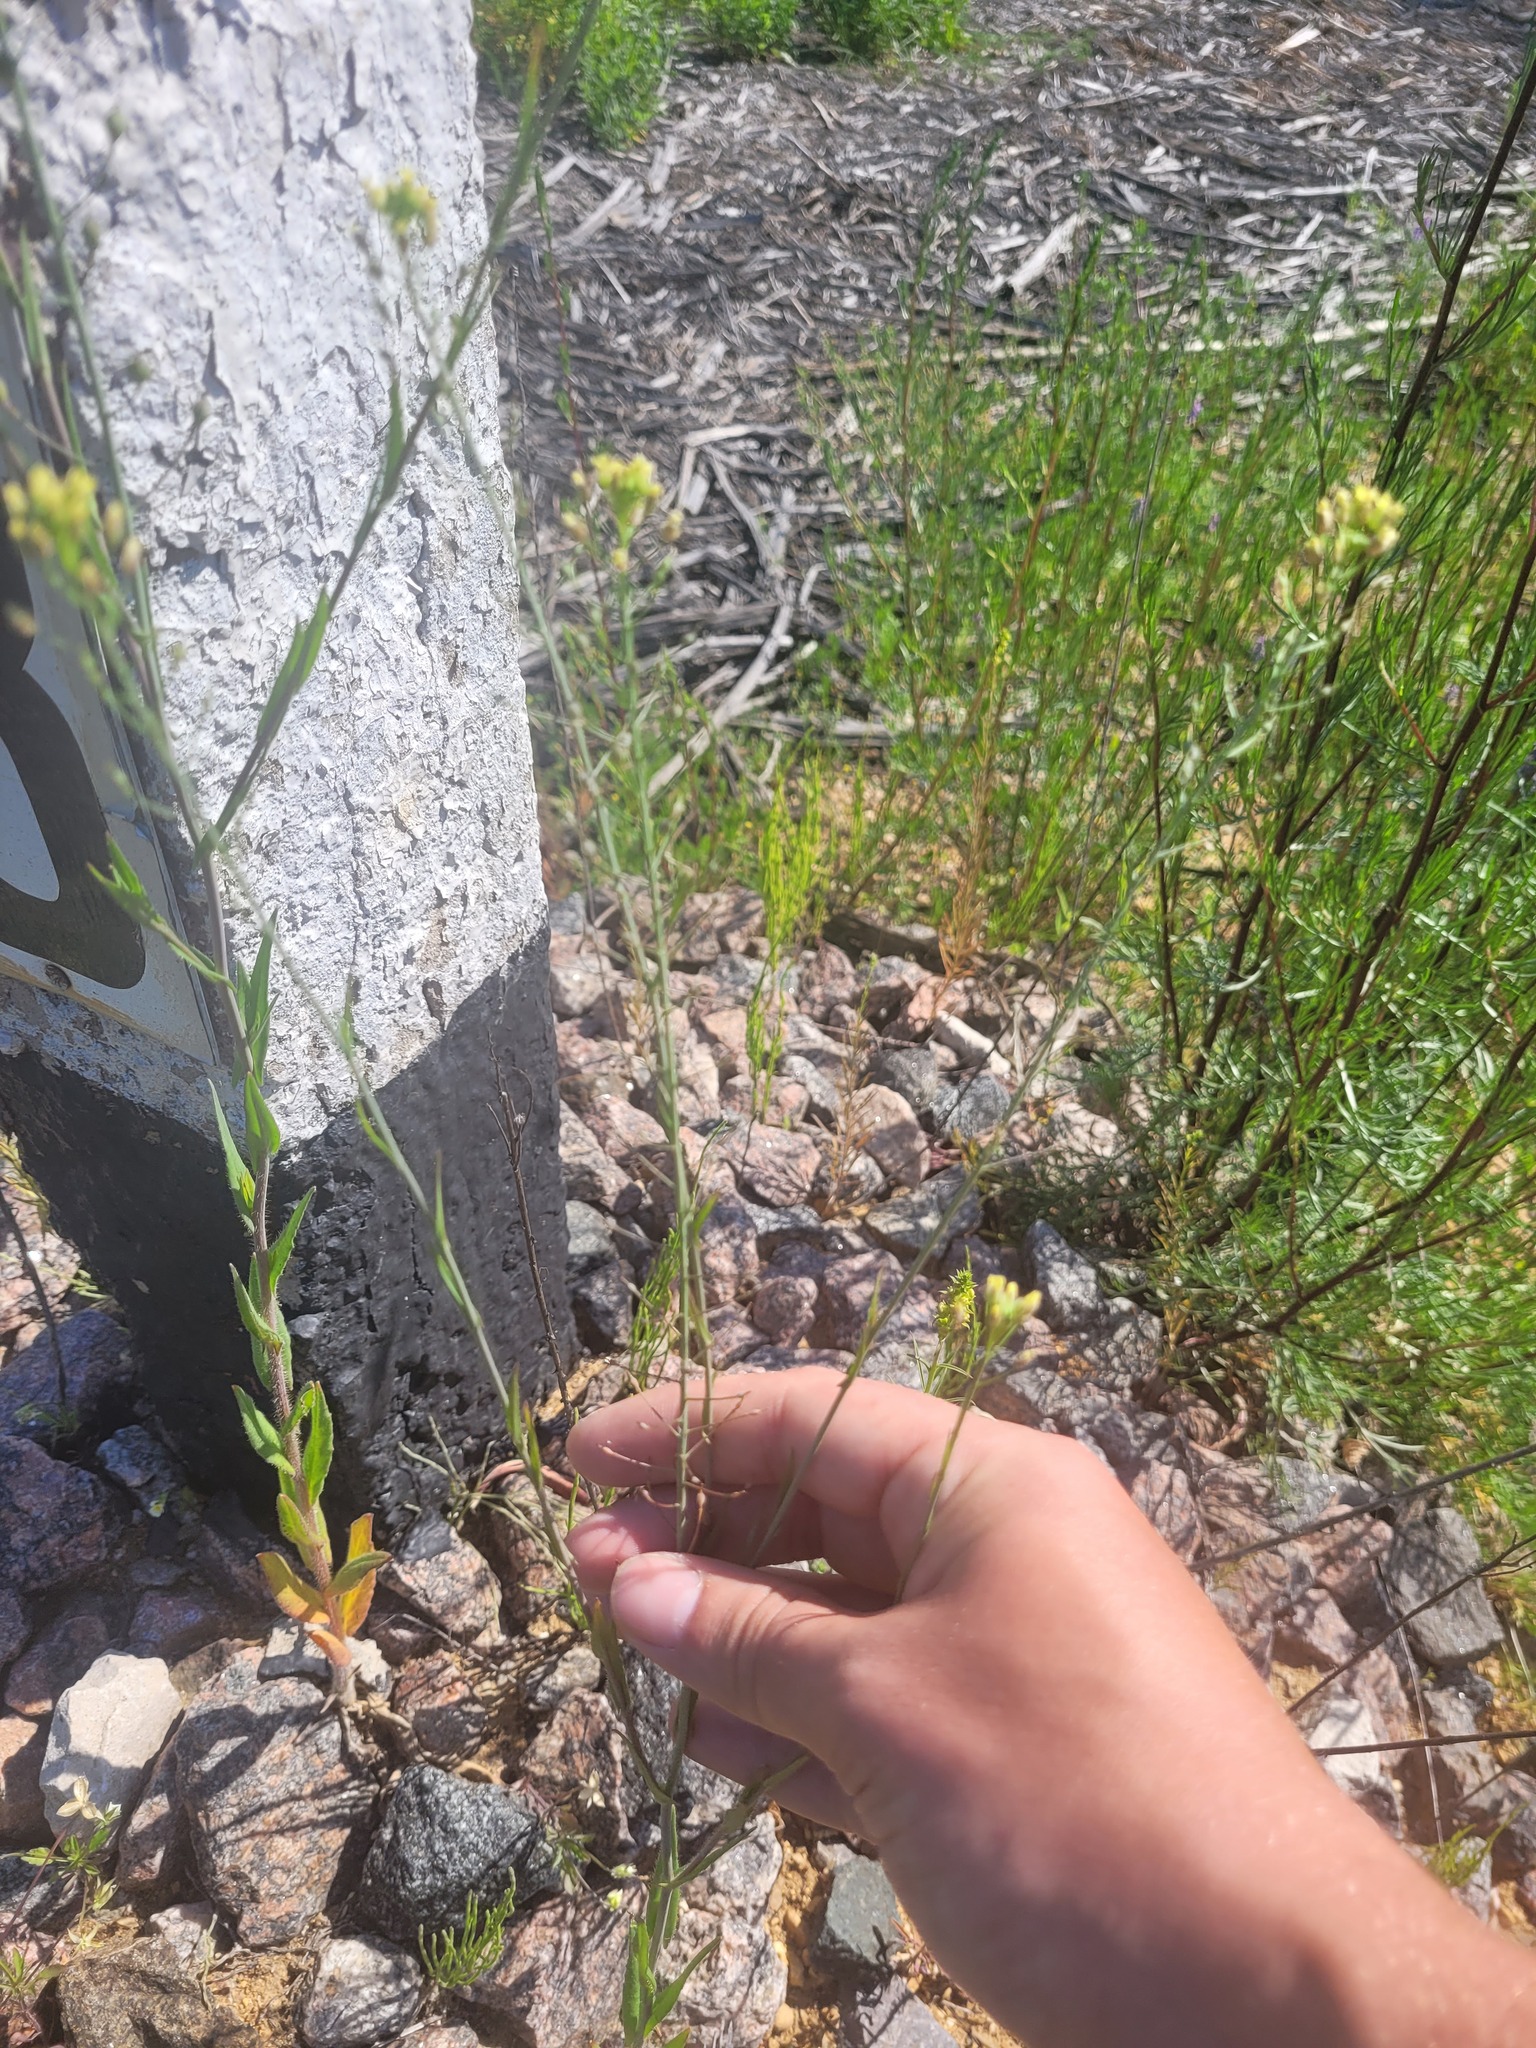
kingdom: Plantae
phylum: Tracheophyta
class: Magnoliopsida
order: Brassicales
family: Brassicaceae
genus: Camelina
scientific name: Camelina microcarpa
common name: Lesser gold-of-pleasure
